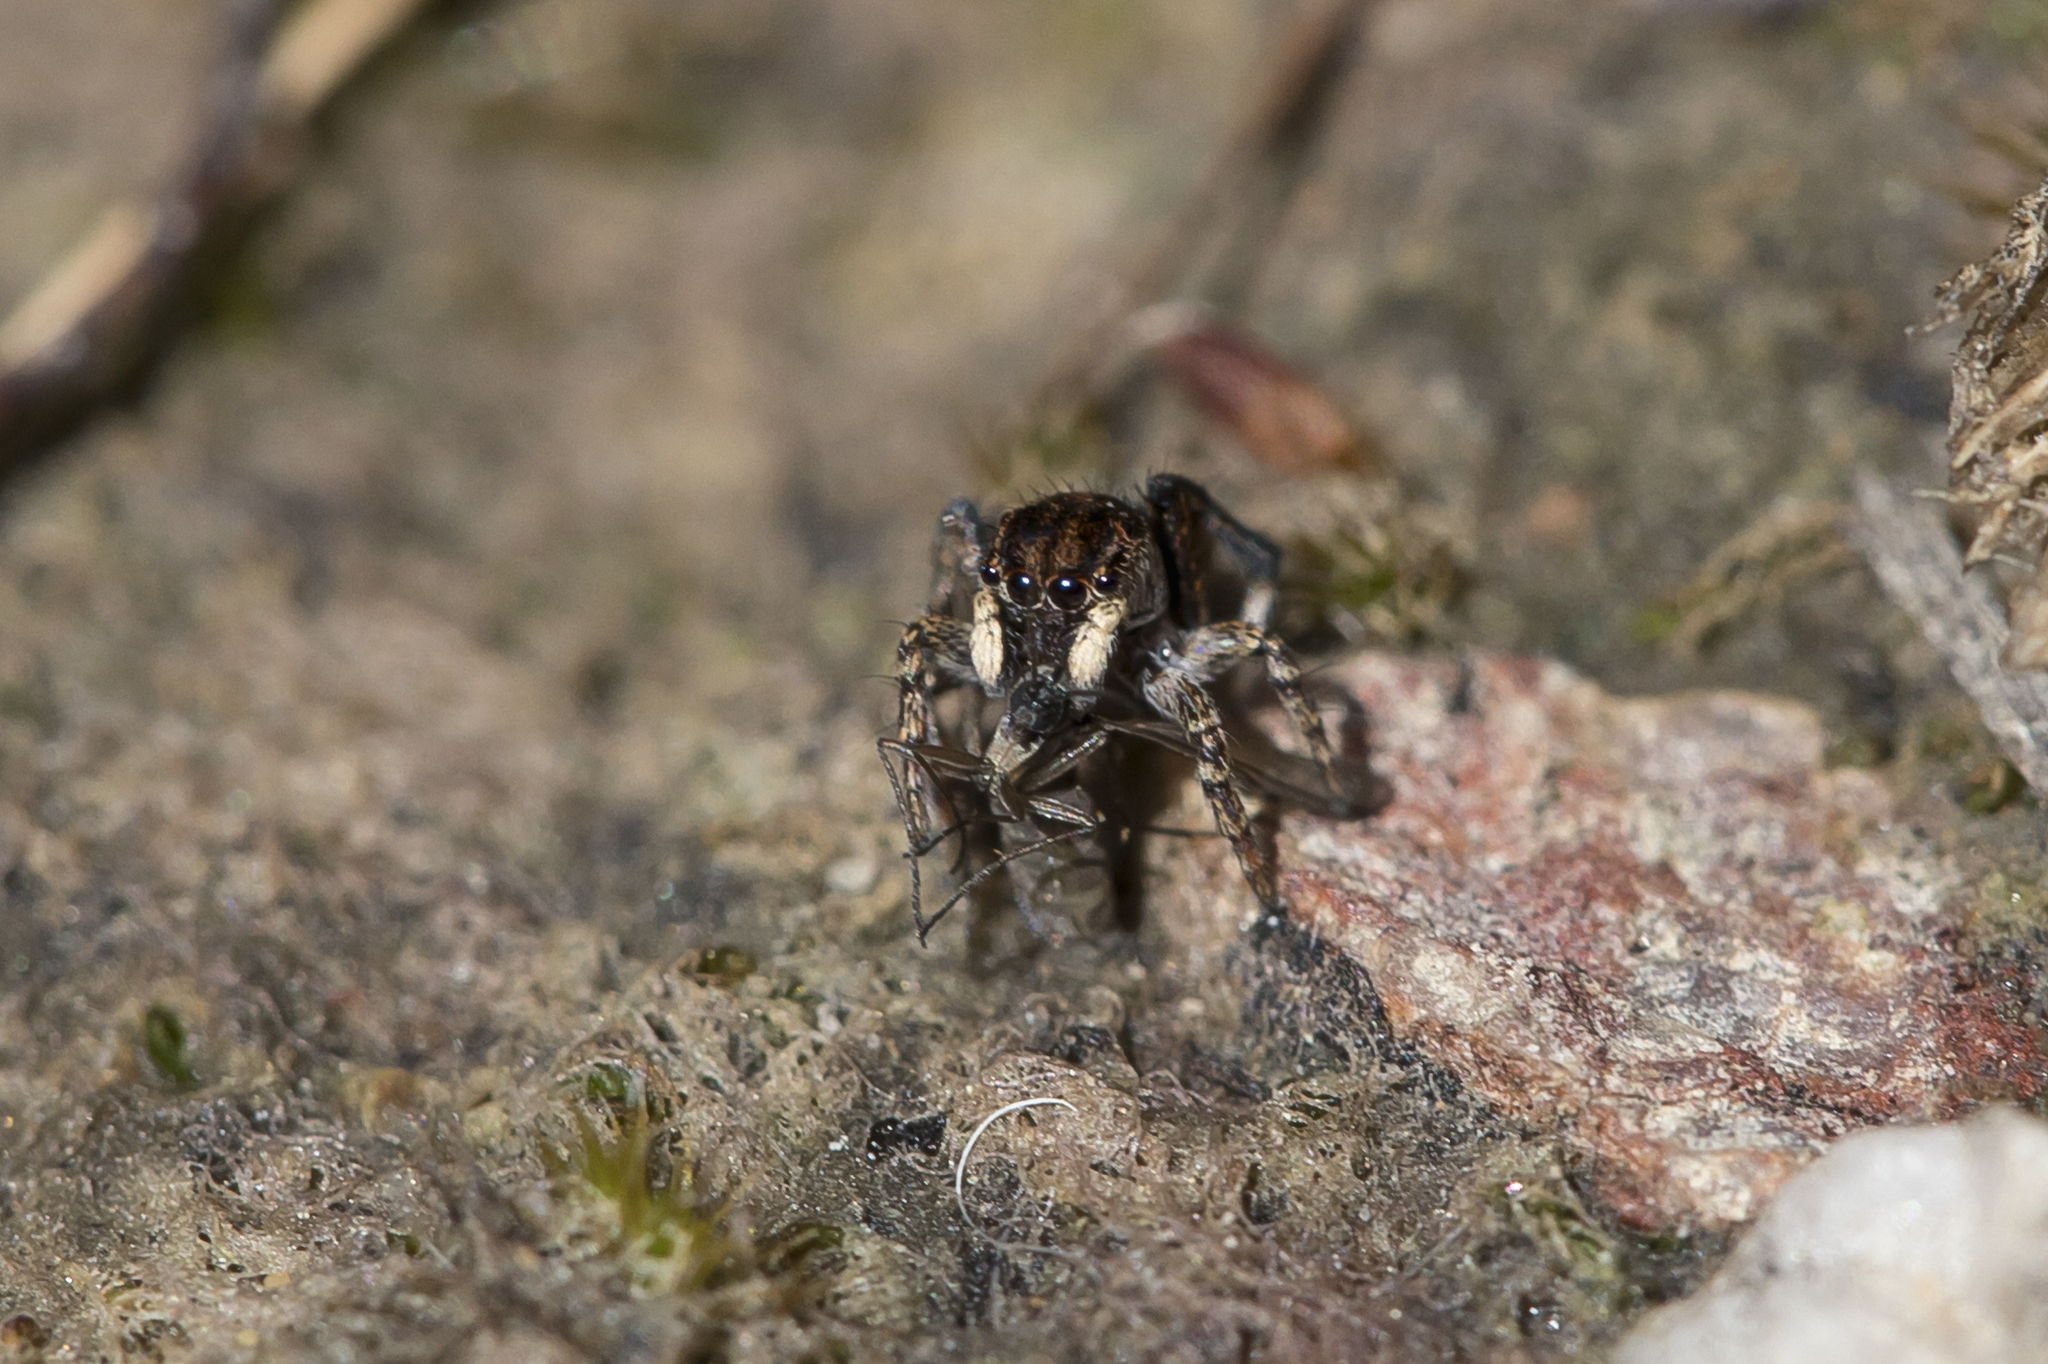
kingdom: Animalia
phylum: Arthropoda
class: Arachnida
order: Araneae
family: Salticidae
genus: Maratus
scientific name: Maratus chrysomelas
